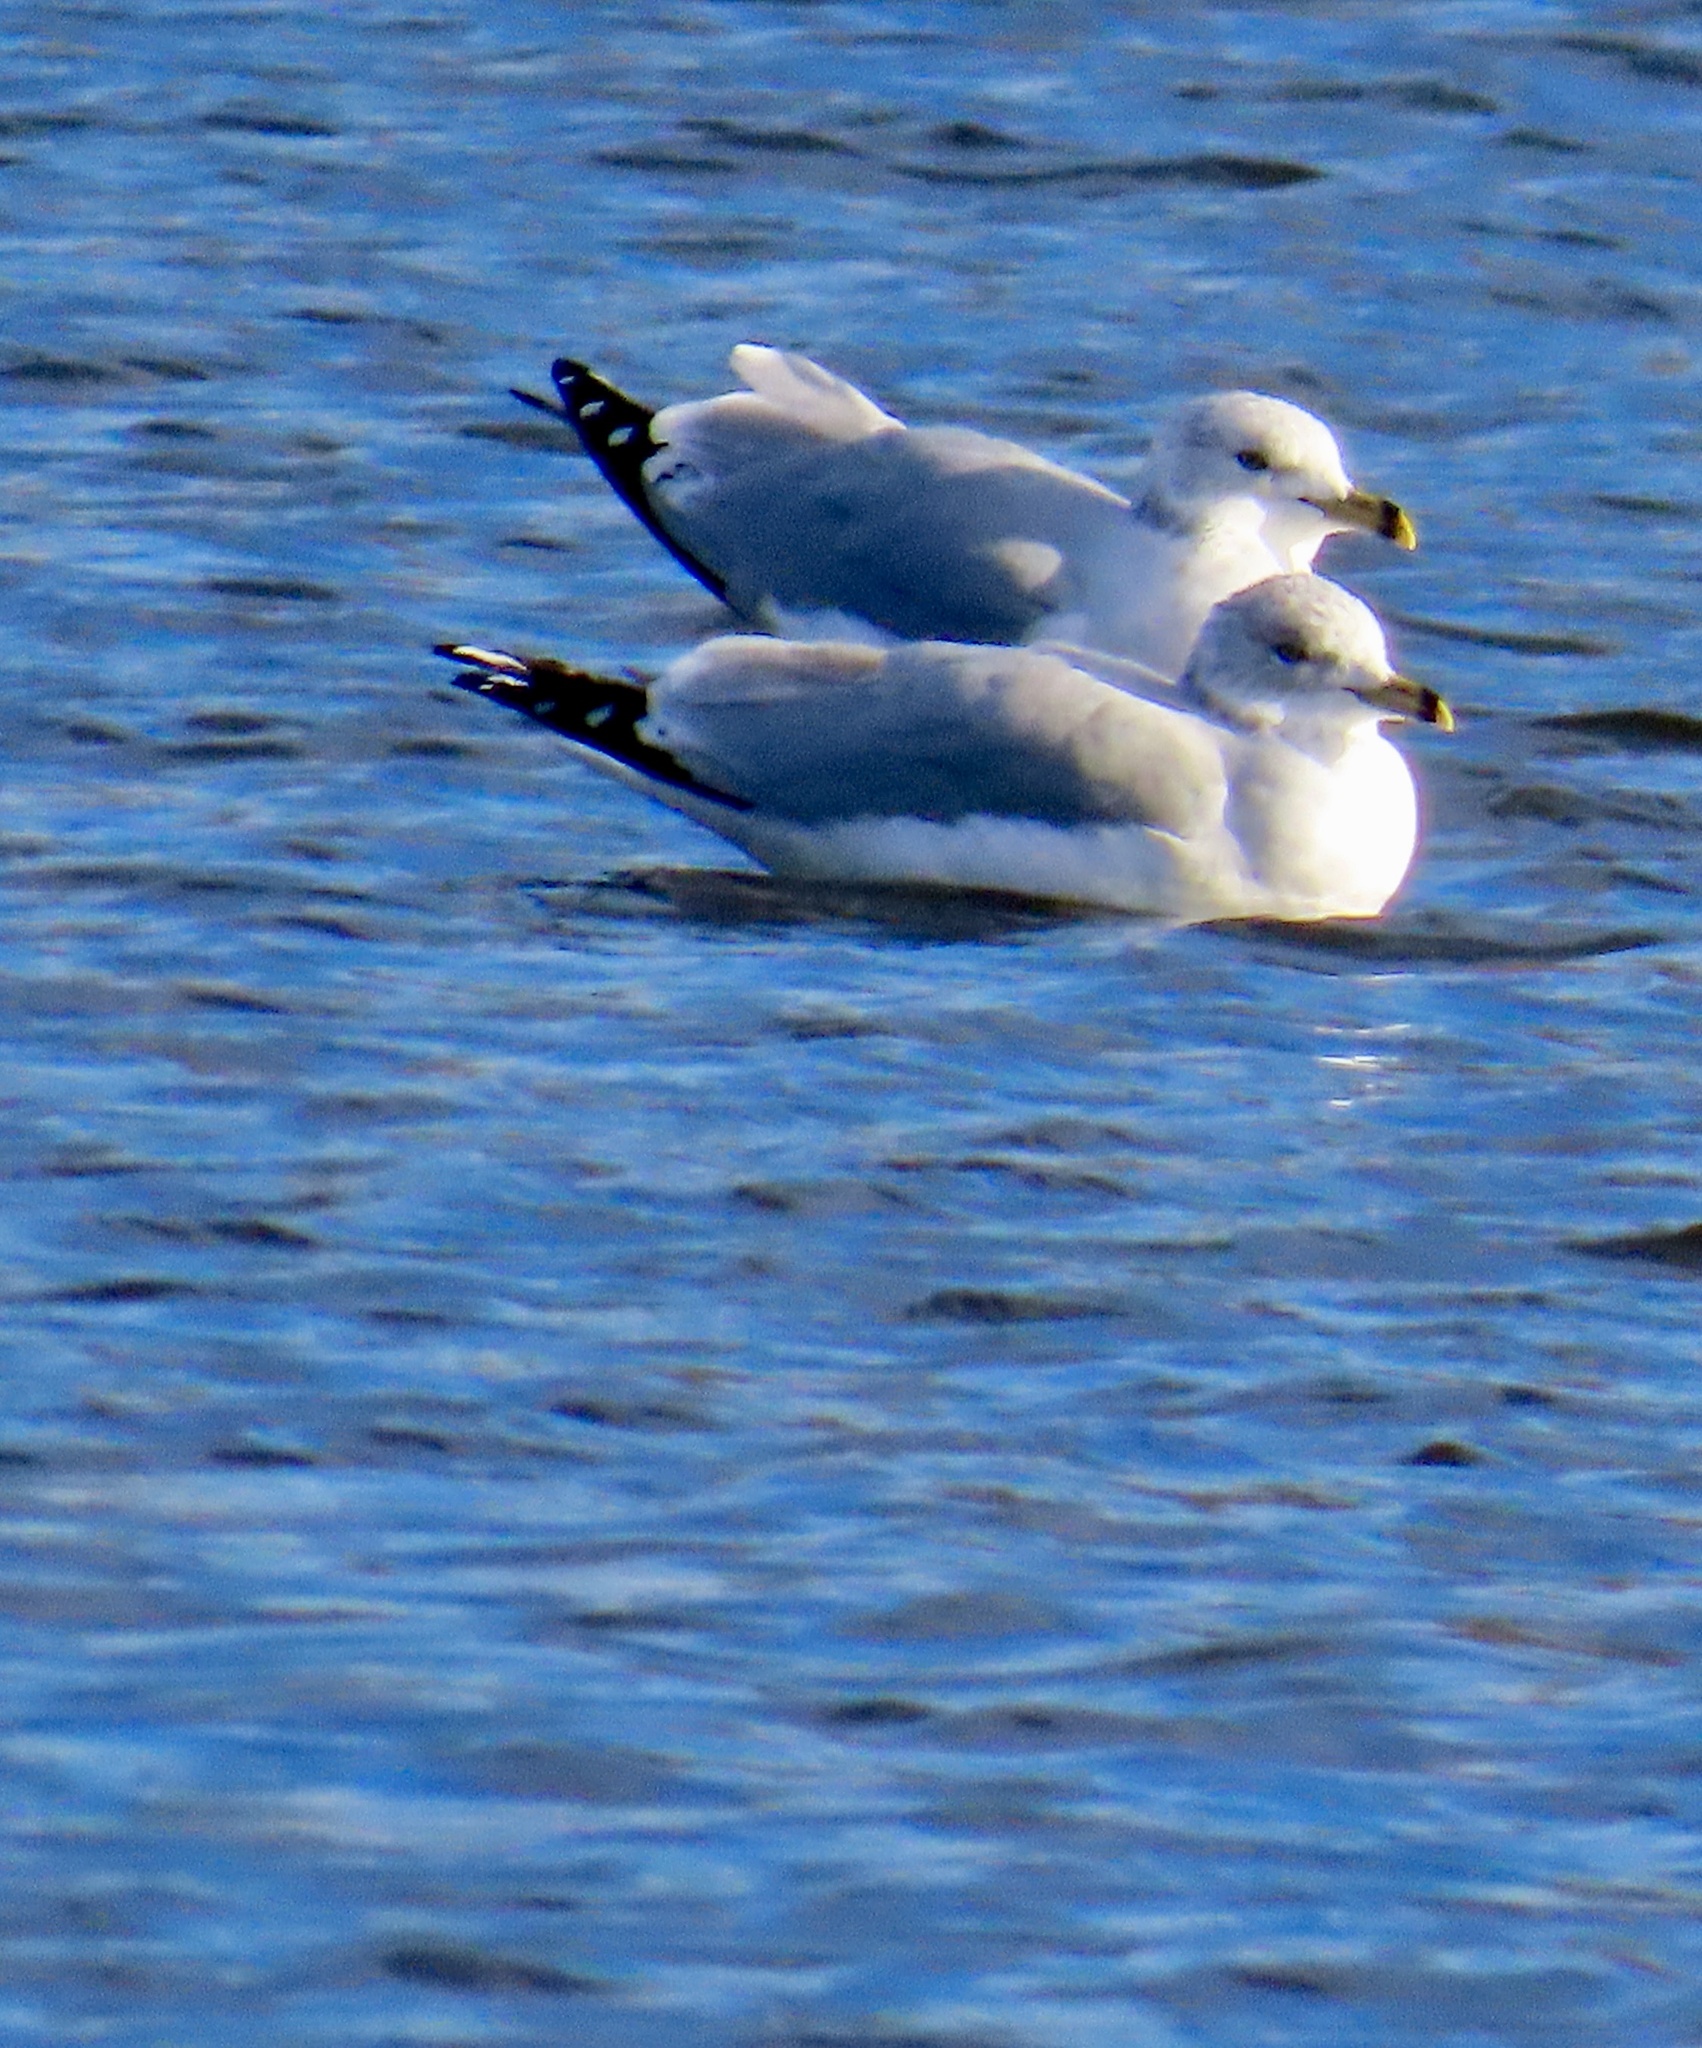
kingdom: Animalia
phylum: Chordata
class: Aves
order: Charadriiformes
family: Laridae
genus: Larus
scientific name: Larus delawarensis
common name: Ring-billed gull
